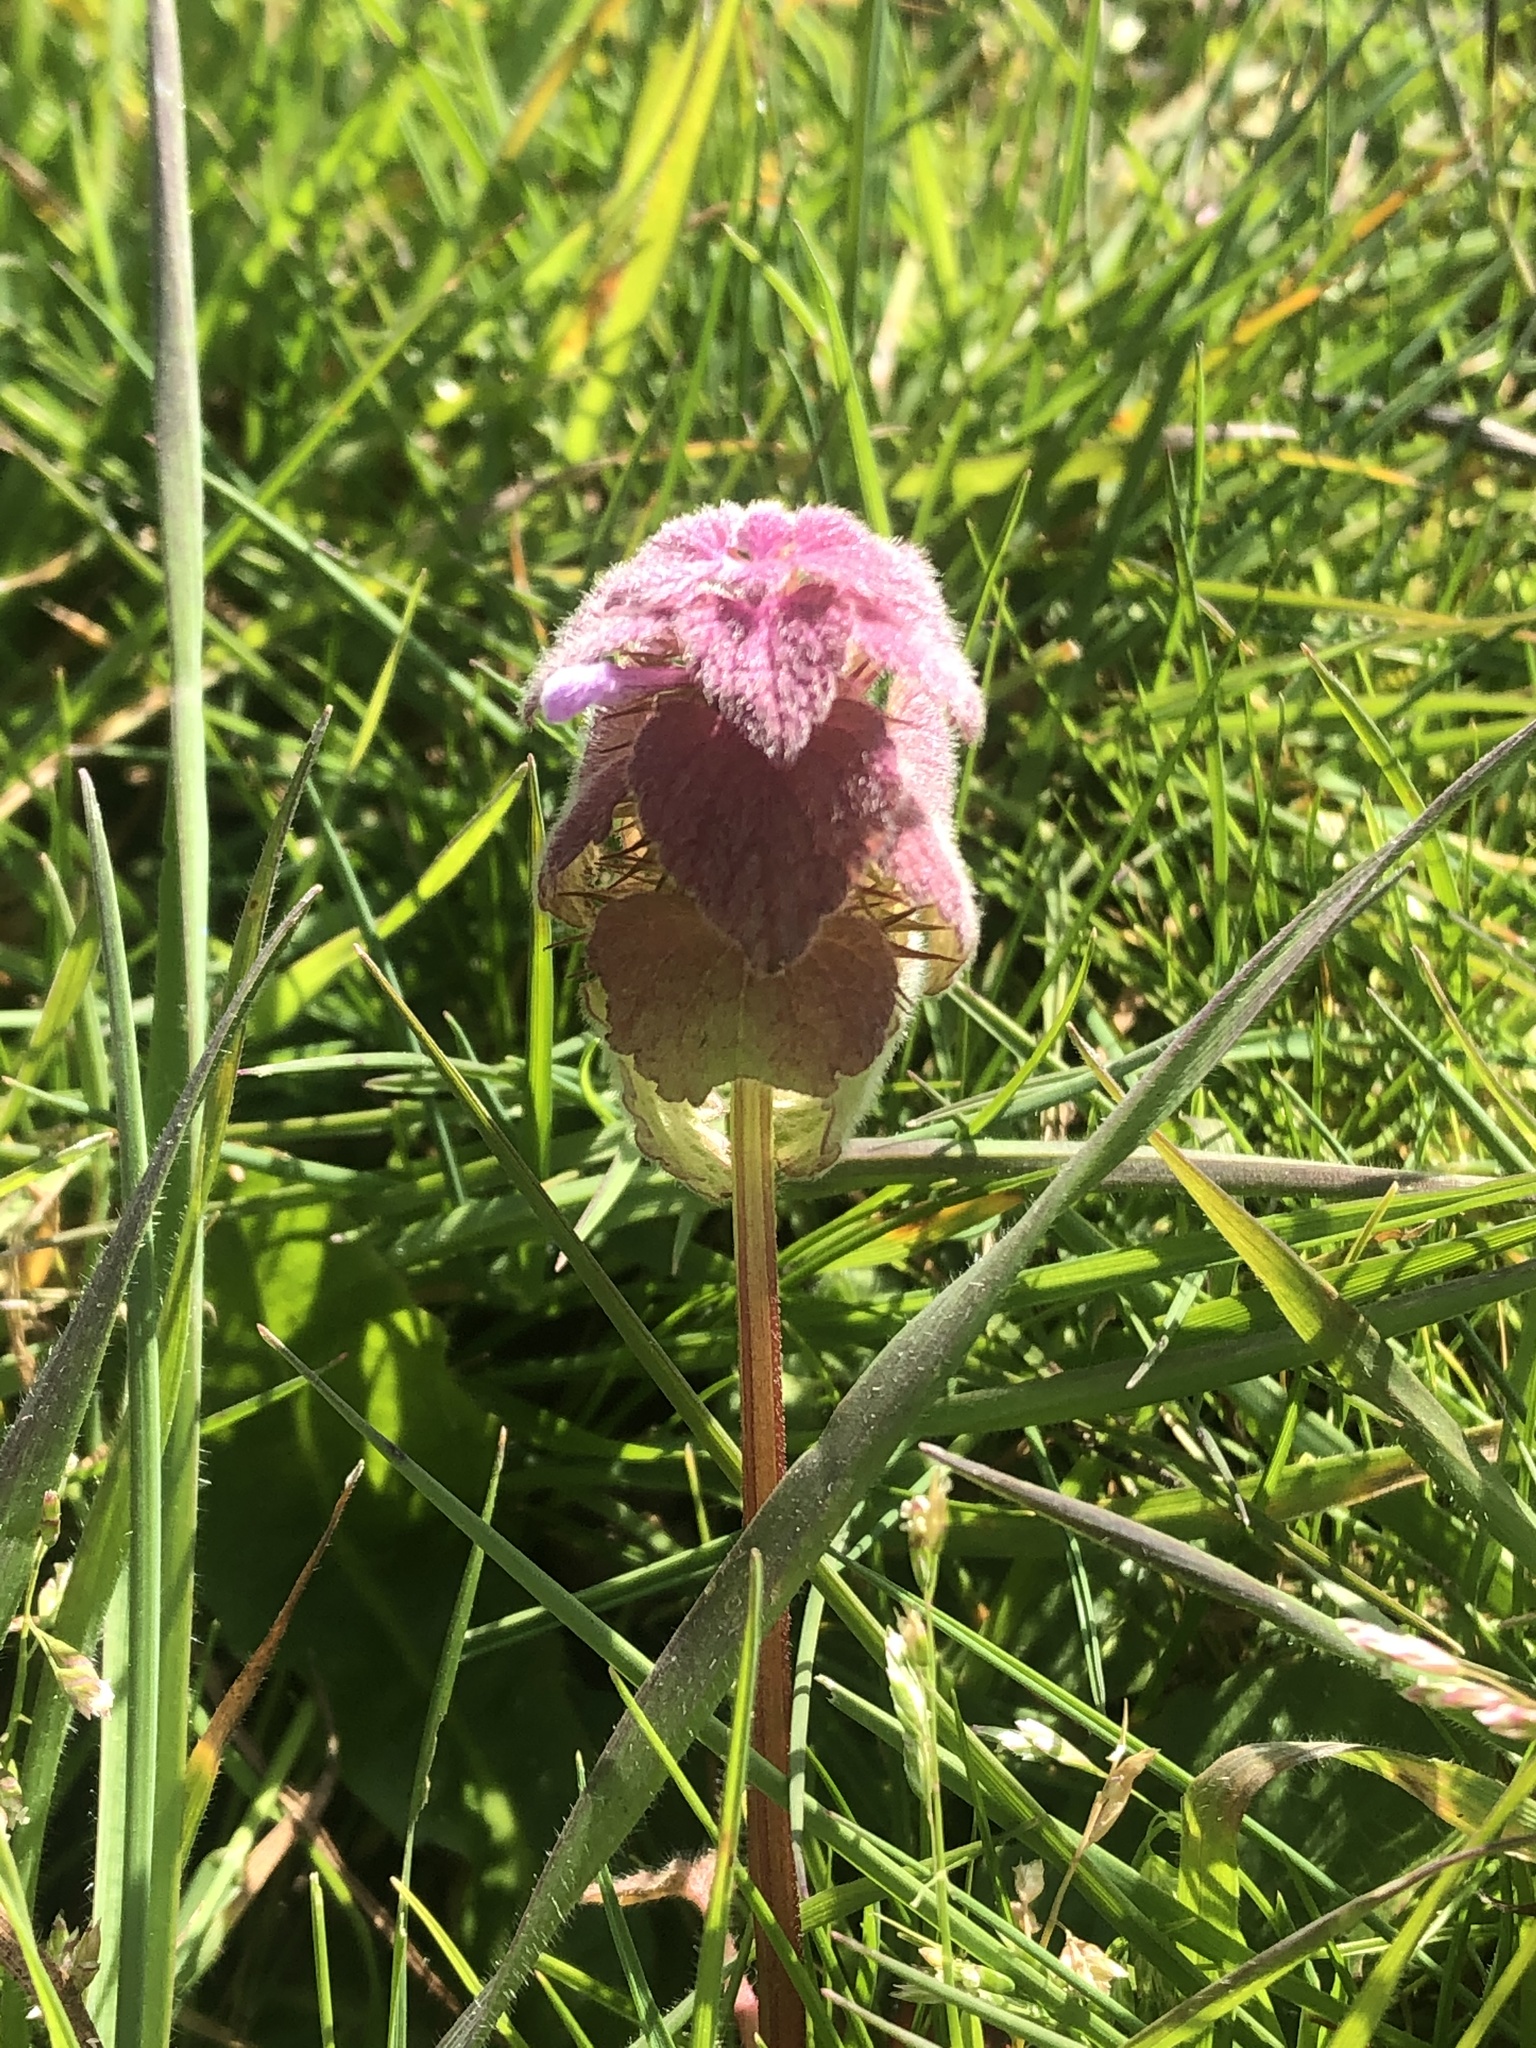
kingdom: Plantae
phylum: Tracheophyta
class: Magnoliopsida
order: Lamiales
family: Lamiaceae
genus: Lamium
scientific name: Lamium purpureum
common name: Red dead-nettle
